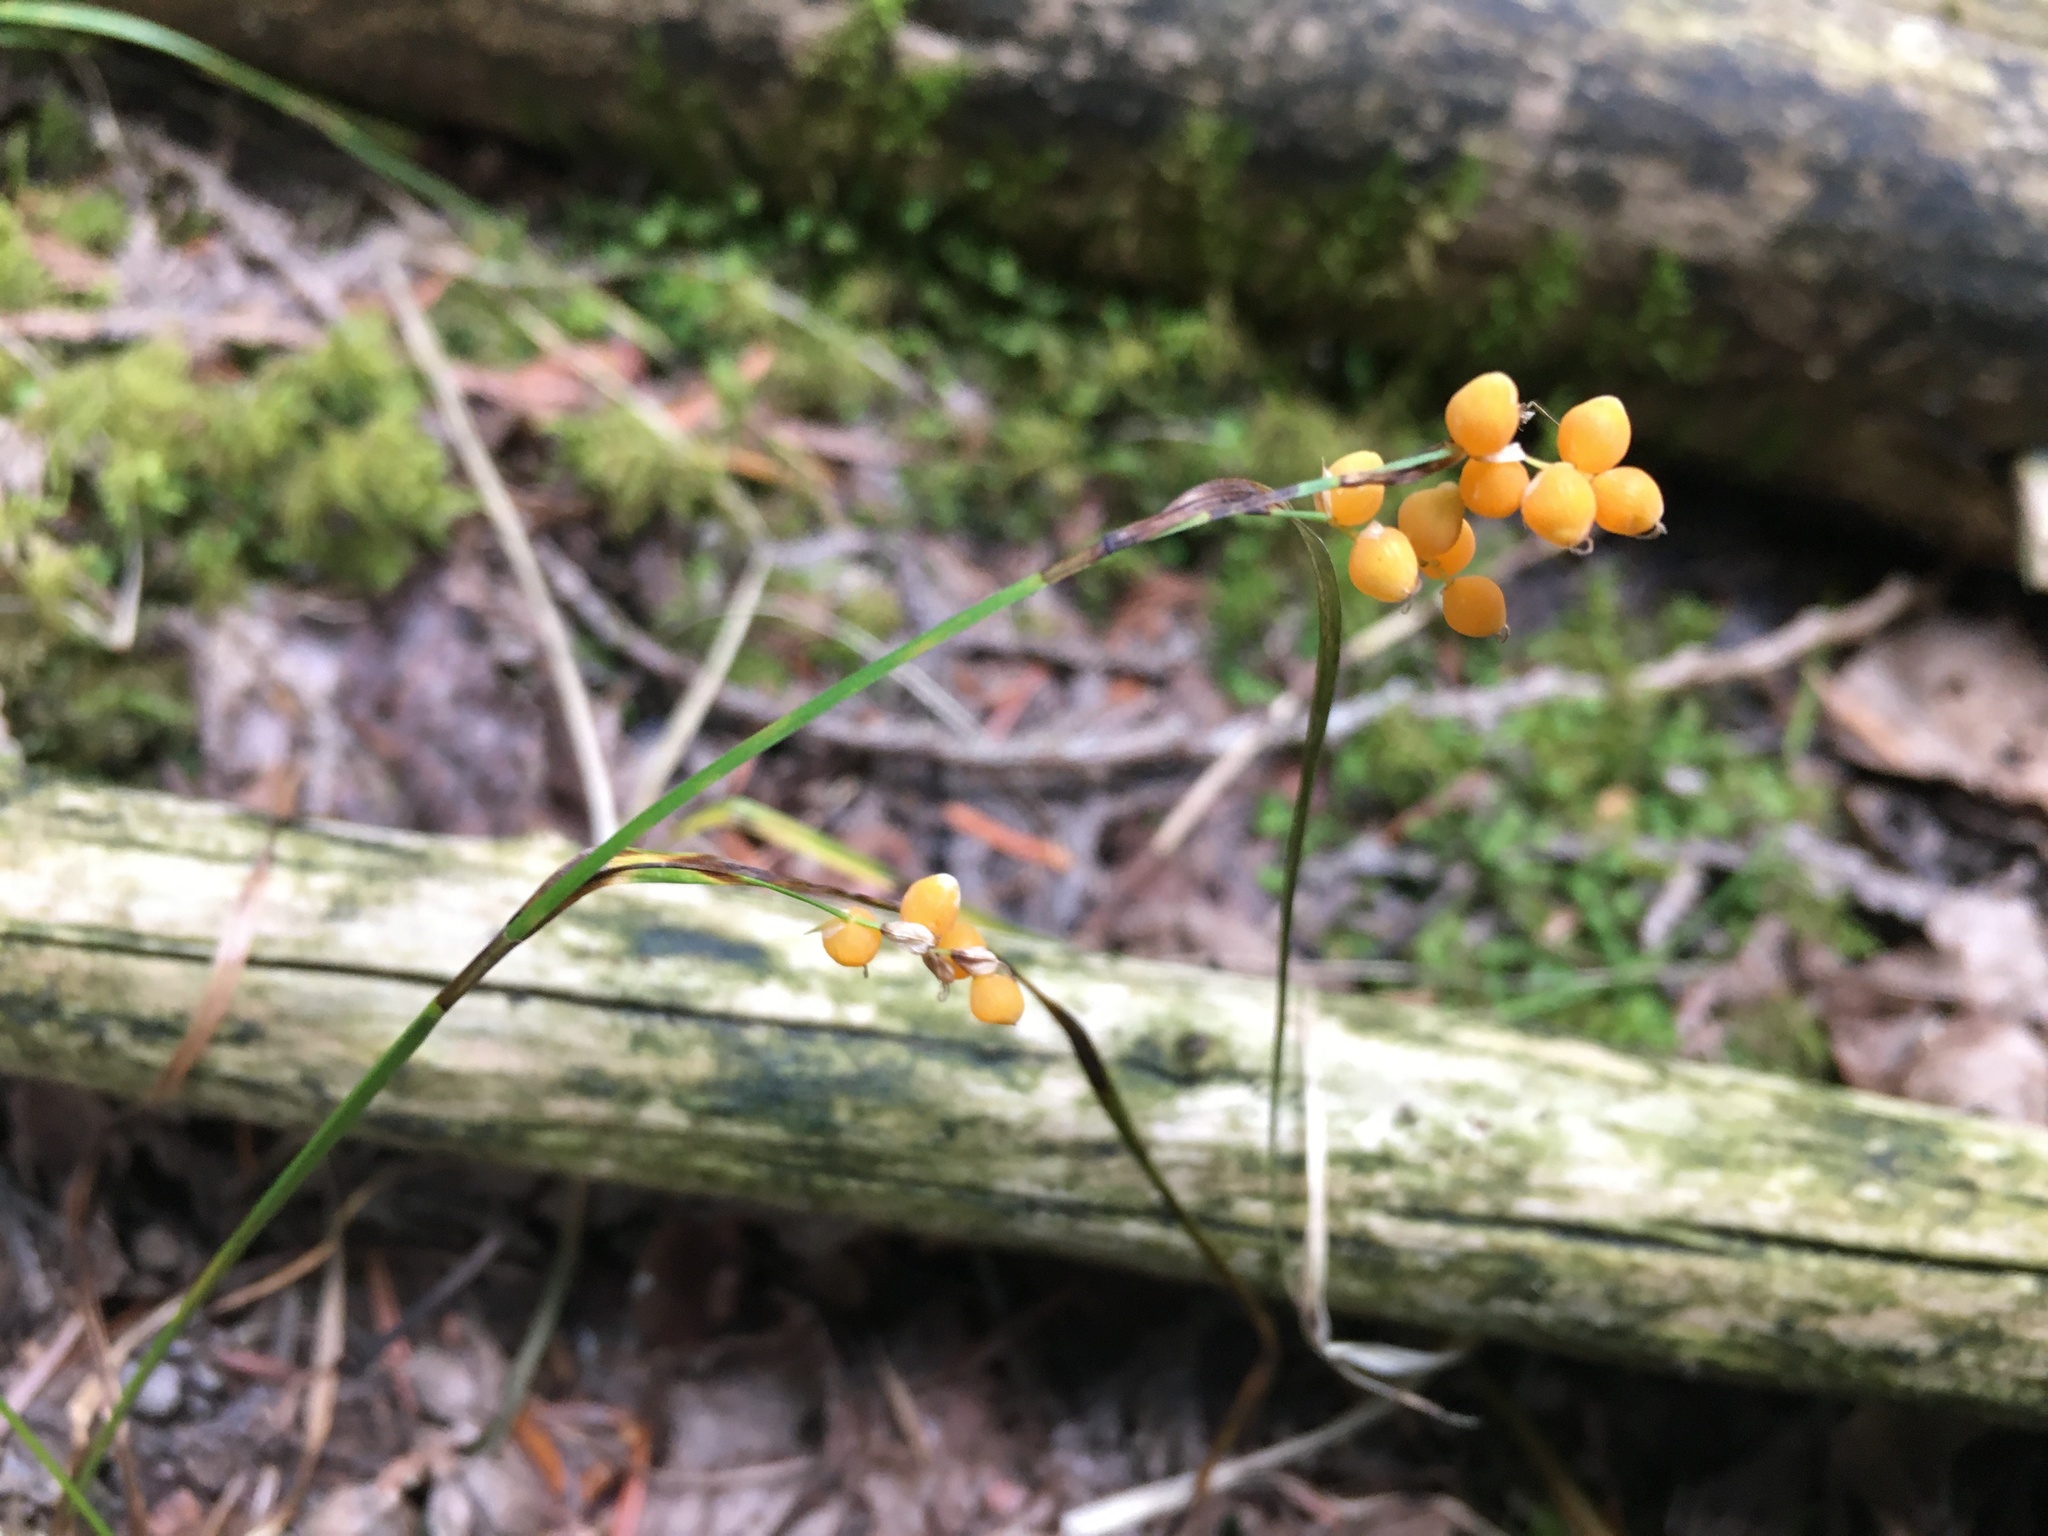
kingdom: Plantae
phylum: Tracheophyta
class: Liliopsida
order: Poales
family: Cyperaceae
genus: Carex
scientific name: Carex aurea
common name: Golden sedge
